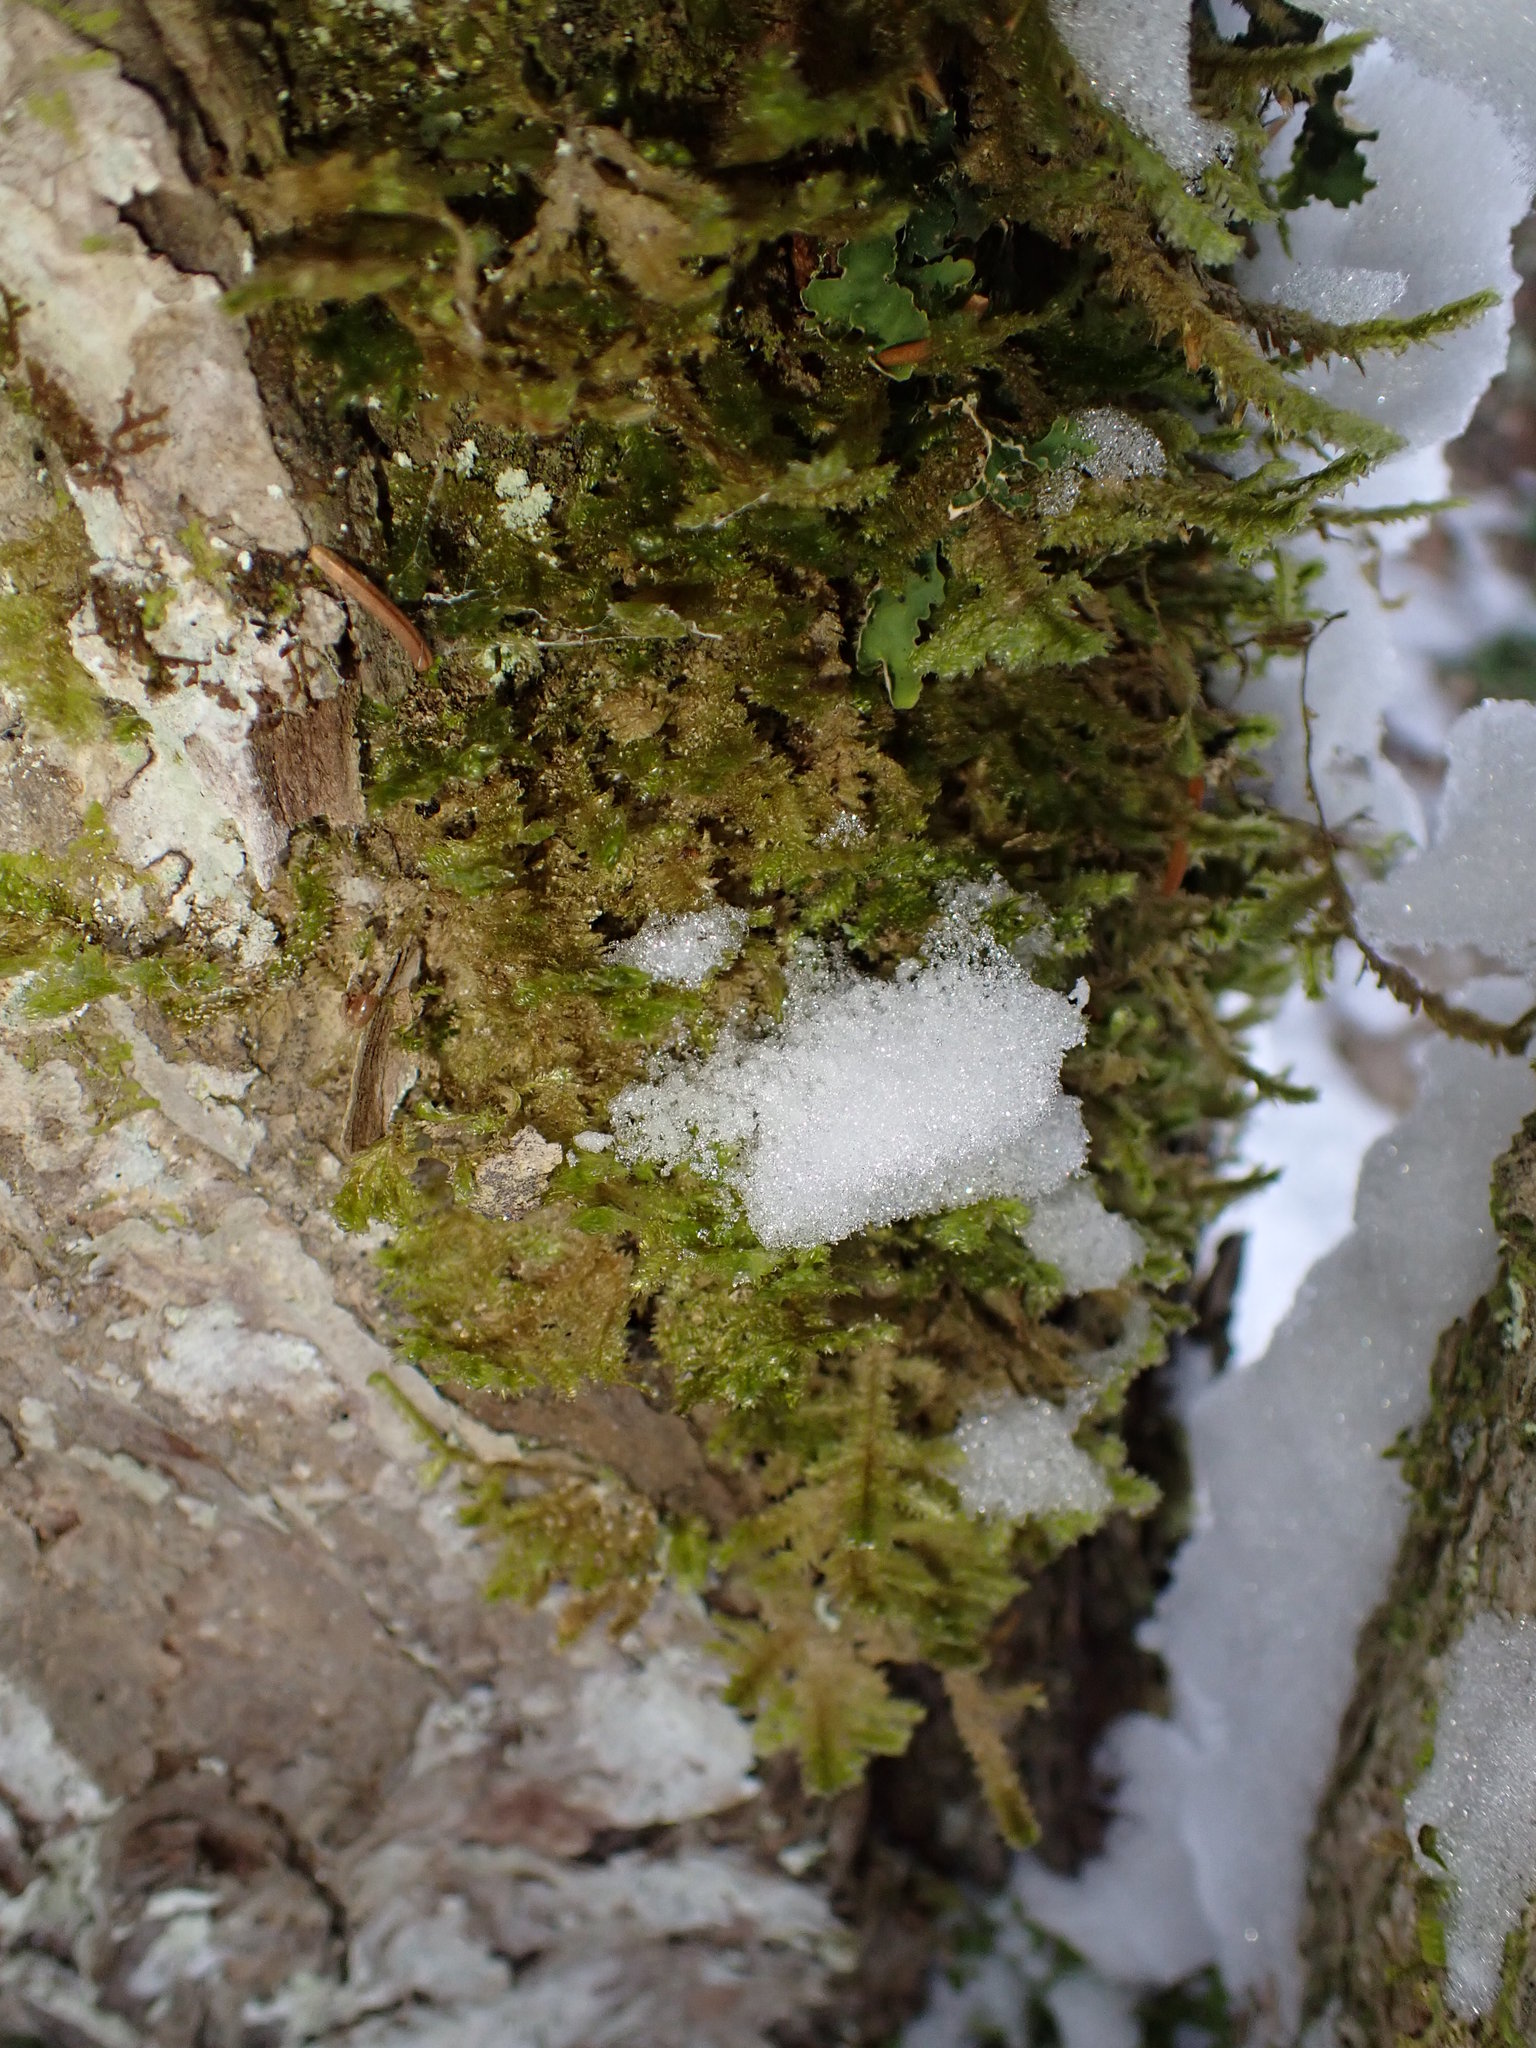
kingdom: Plantae
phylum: Bryophyta
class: Bryopsida
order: Hypnales
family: Neckeraceae
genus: Neckera
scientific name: Neckera pennata
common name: Feathery neckera
